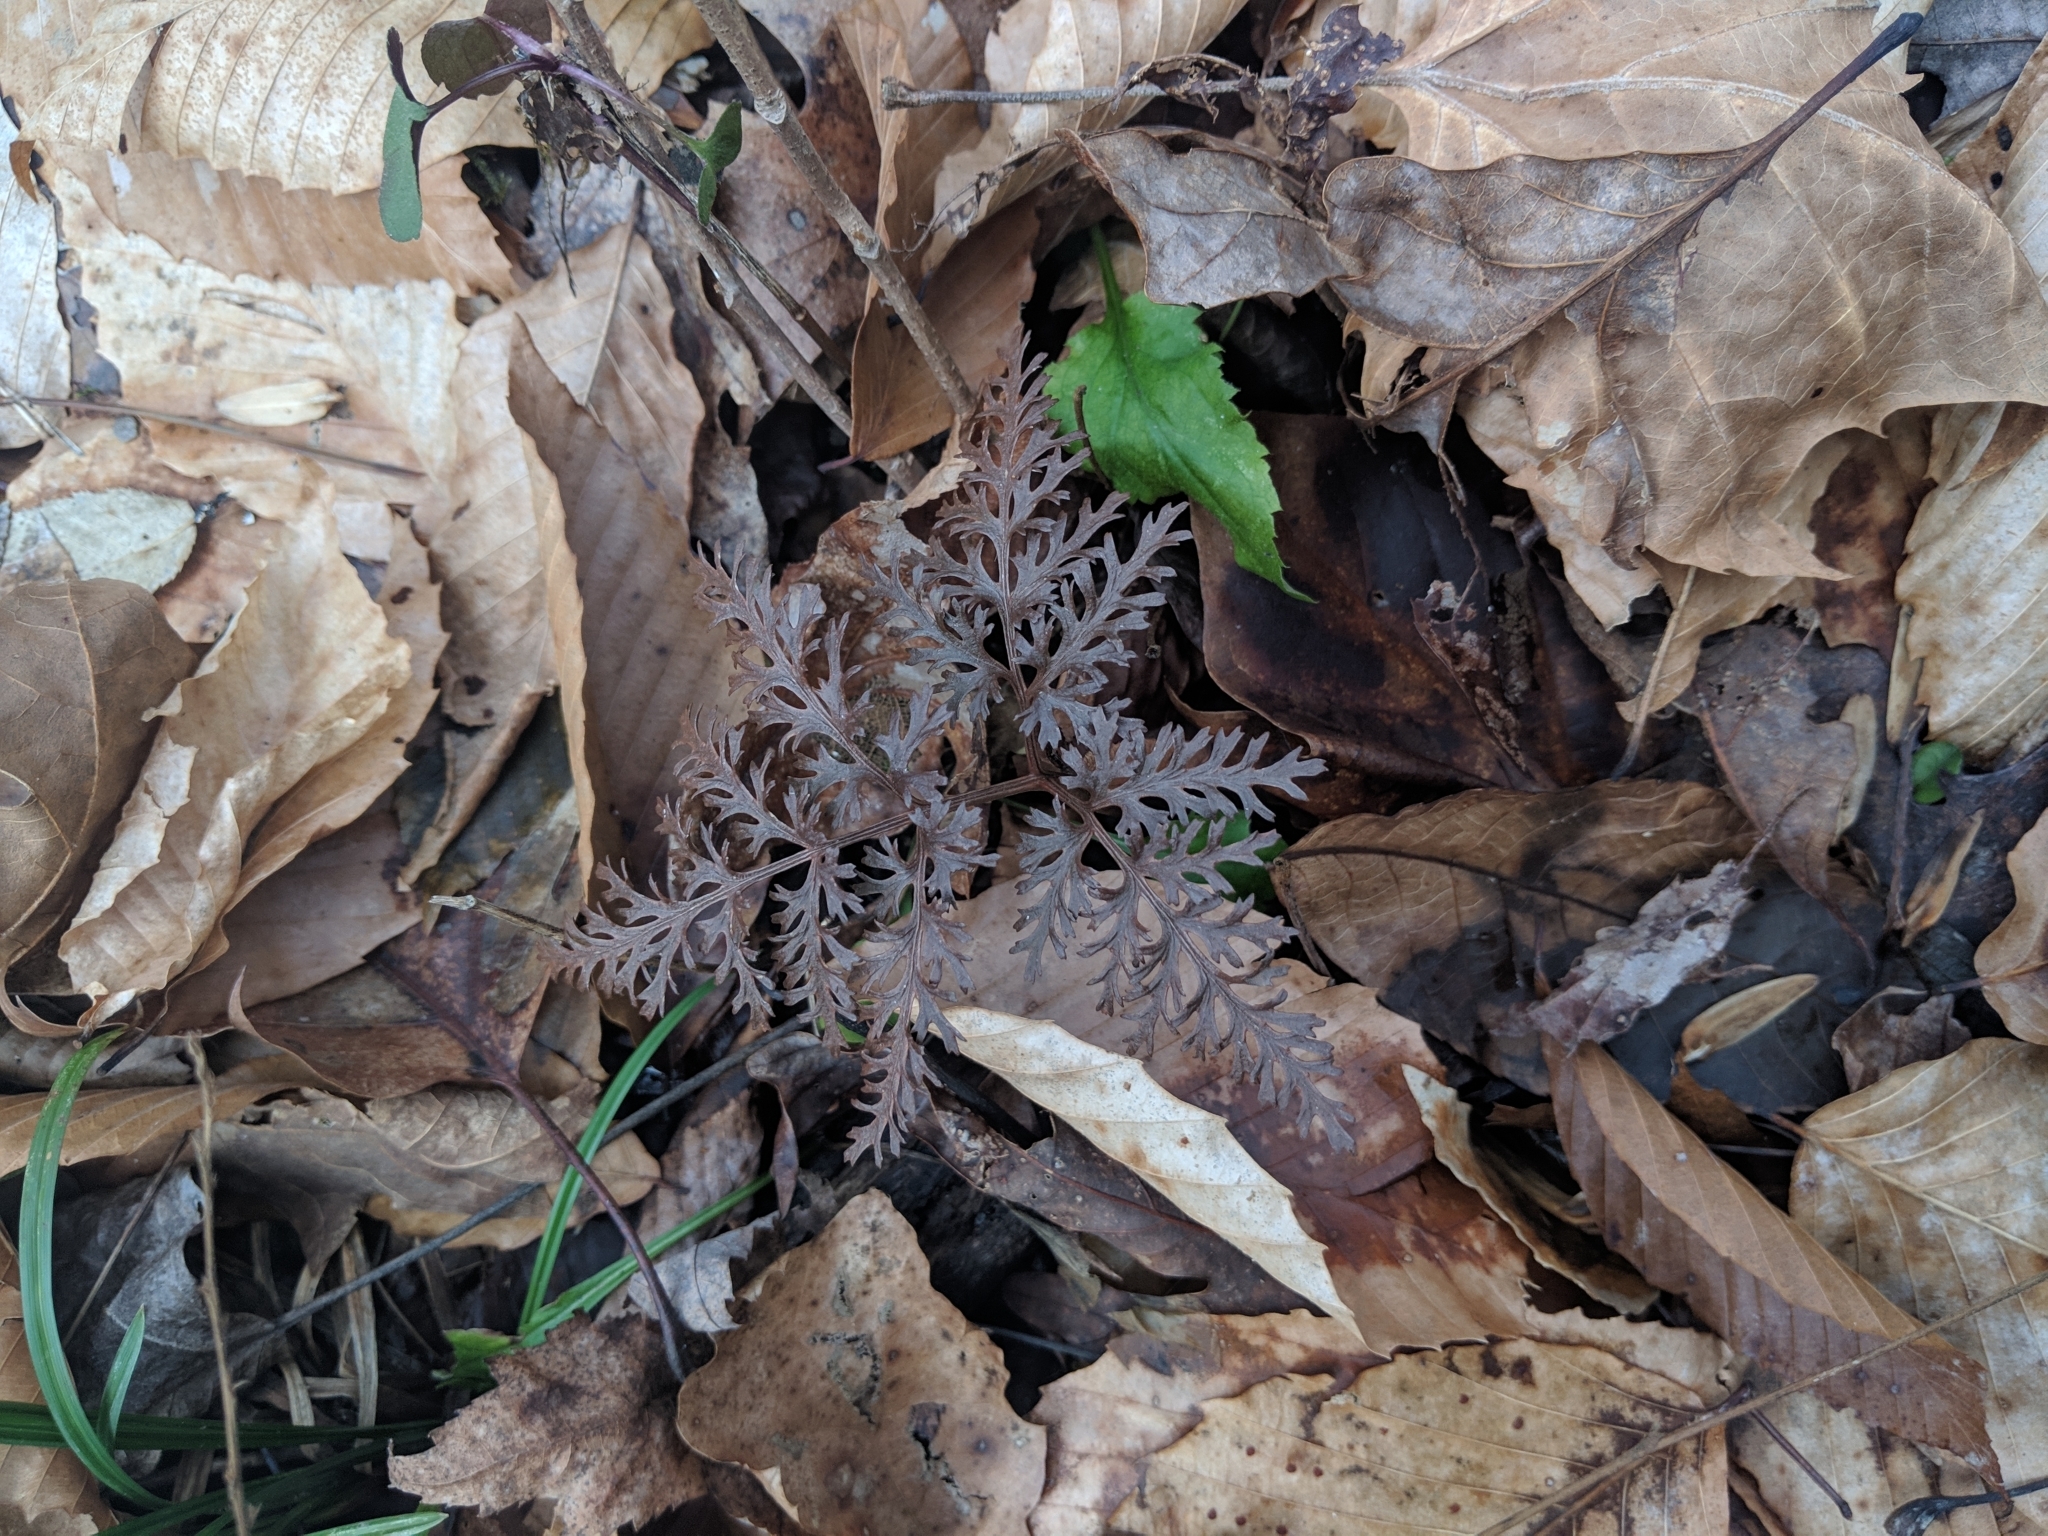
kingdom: Plantae
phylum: Tracheophyta
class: Polypodiopsida
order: Ophioglossales
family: Ophioglossaceae
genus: Sceptridium
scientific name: Sceptridium dissectum
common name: Cut-leaved grapefern
